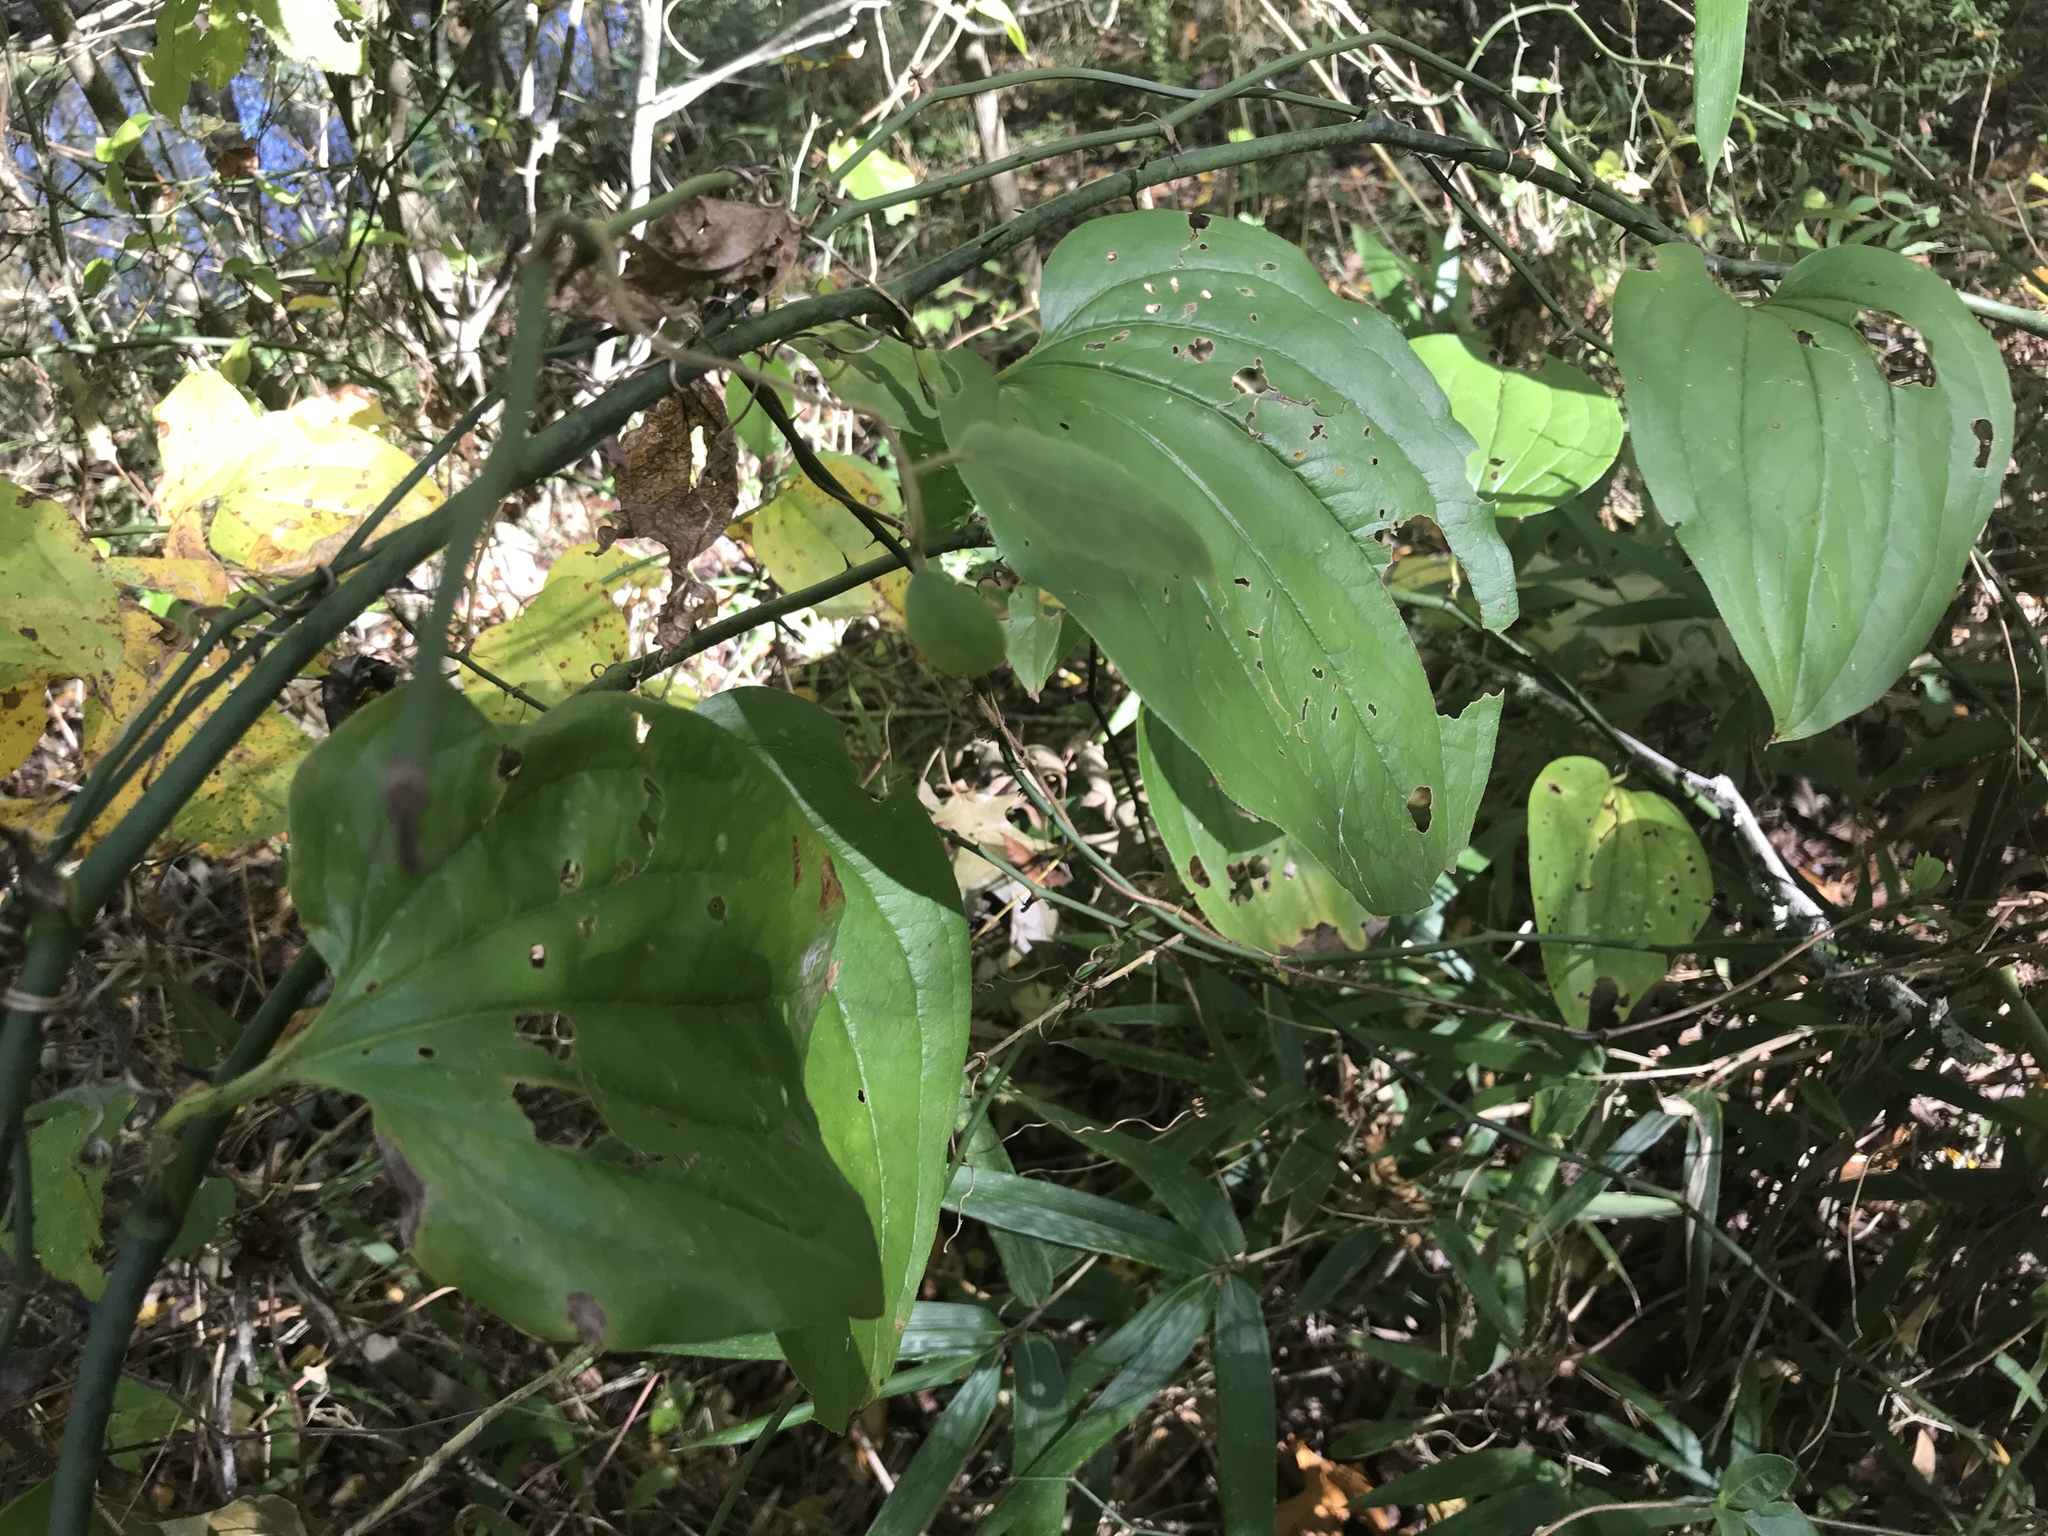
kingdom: Plantae
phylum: Tracheophyta
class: Liliopsida
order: Liliales
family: Smilacaceae
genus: Smilax
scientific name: Smilax rotundifolia
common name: Bullbriar
